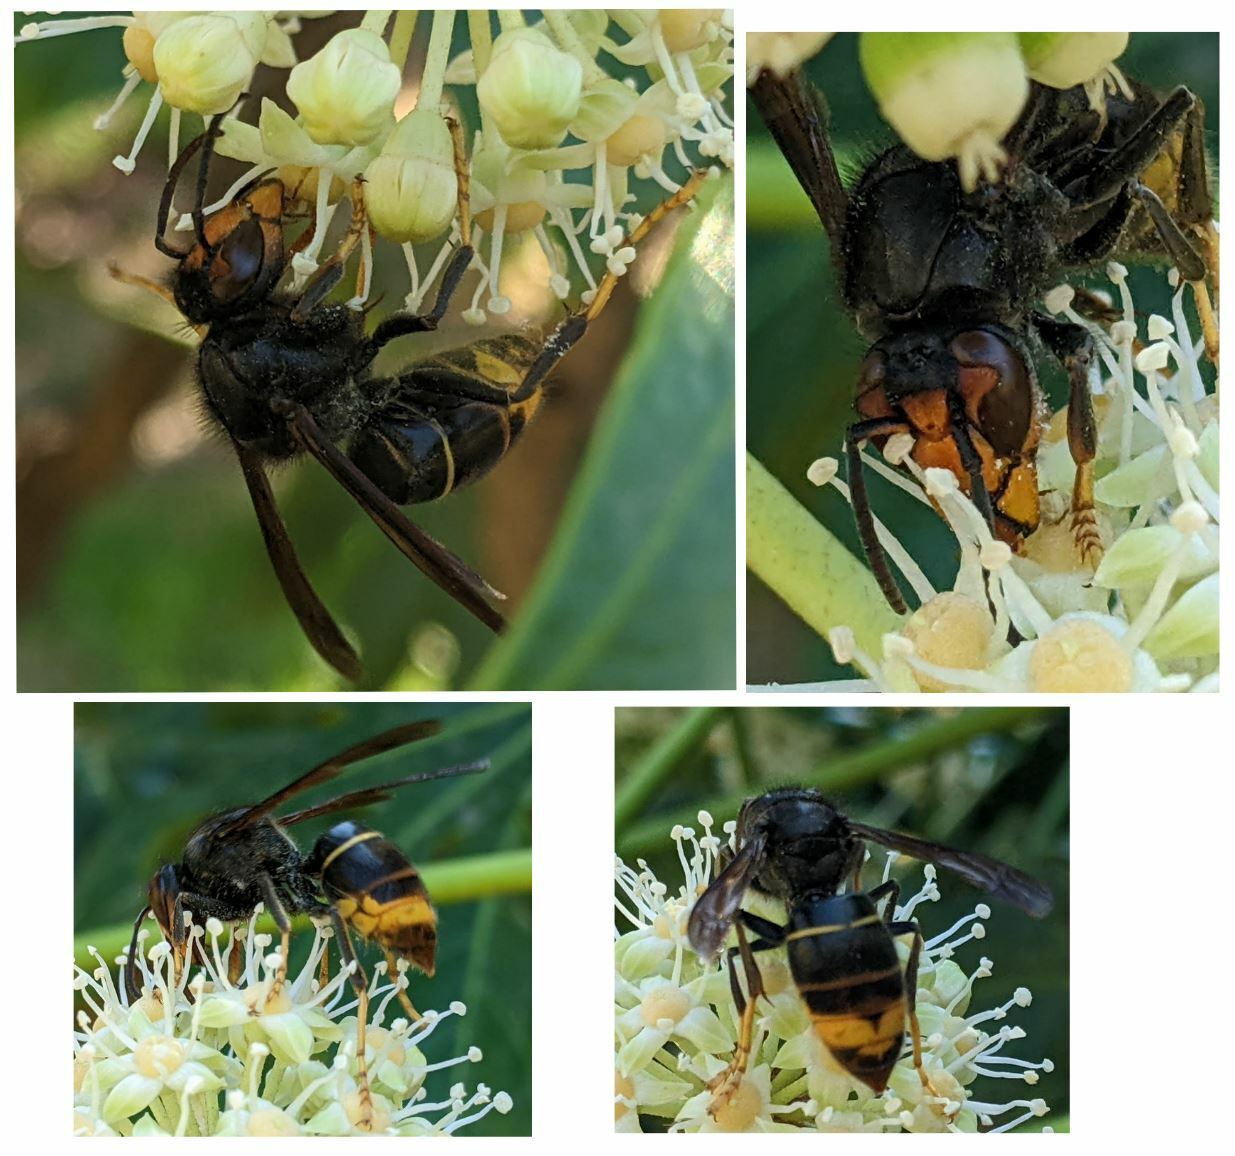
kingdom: Animalia
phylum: Arthropoda
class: Insecta
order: Hymenoptera
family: Vespidae
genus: Vespa
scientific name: Vespa velutina
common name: Asian hornet
